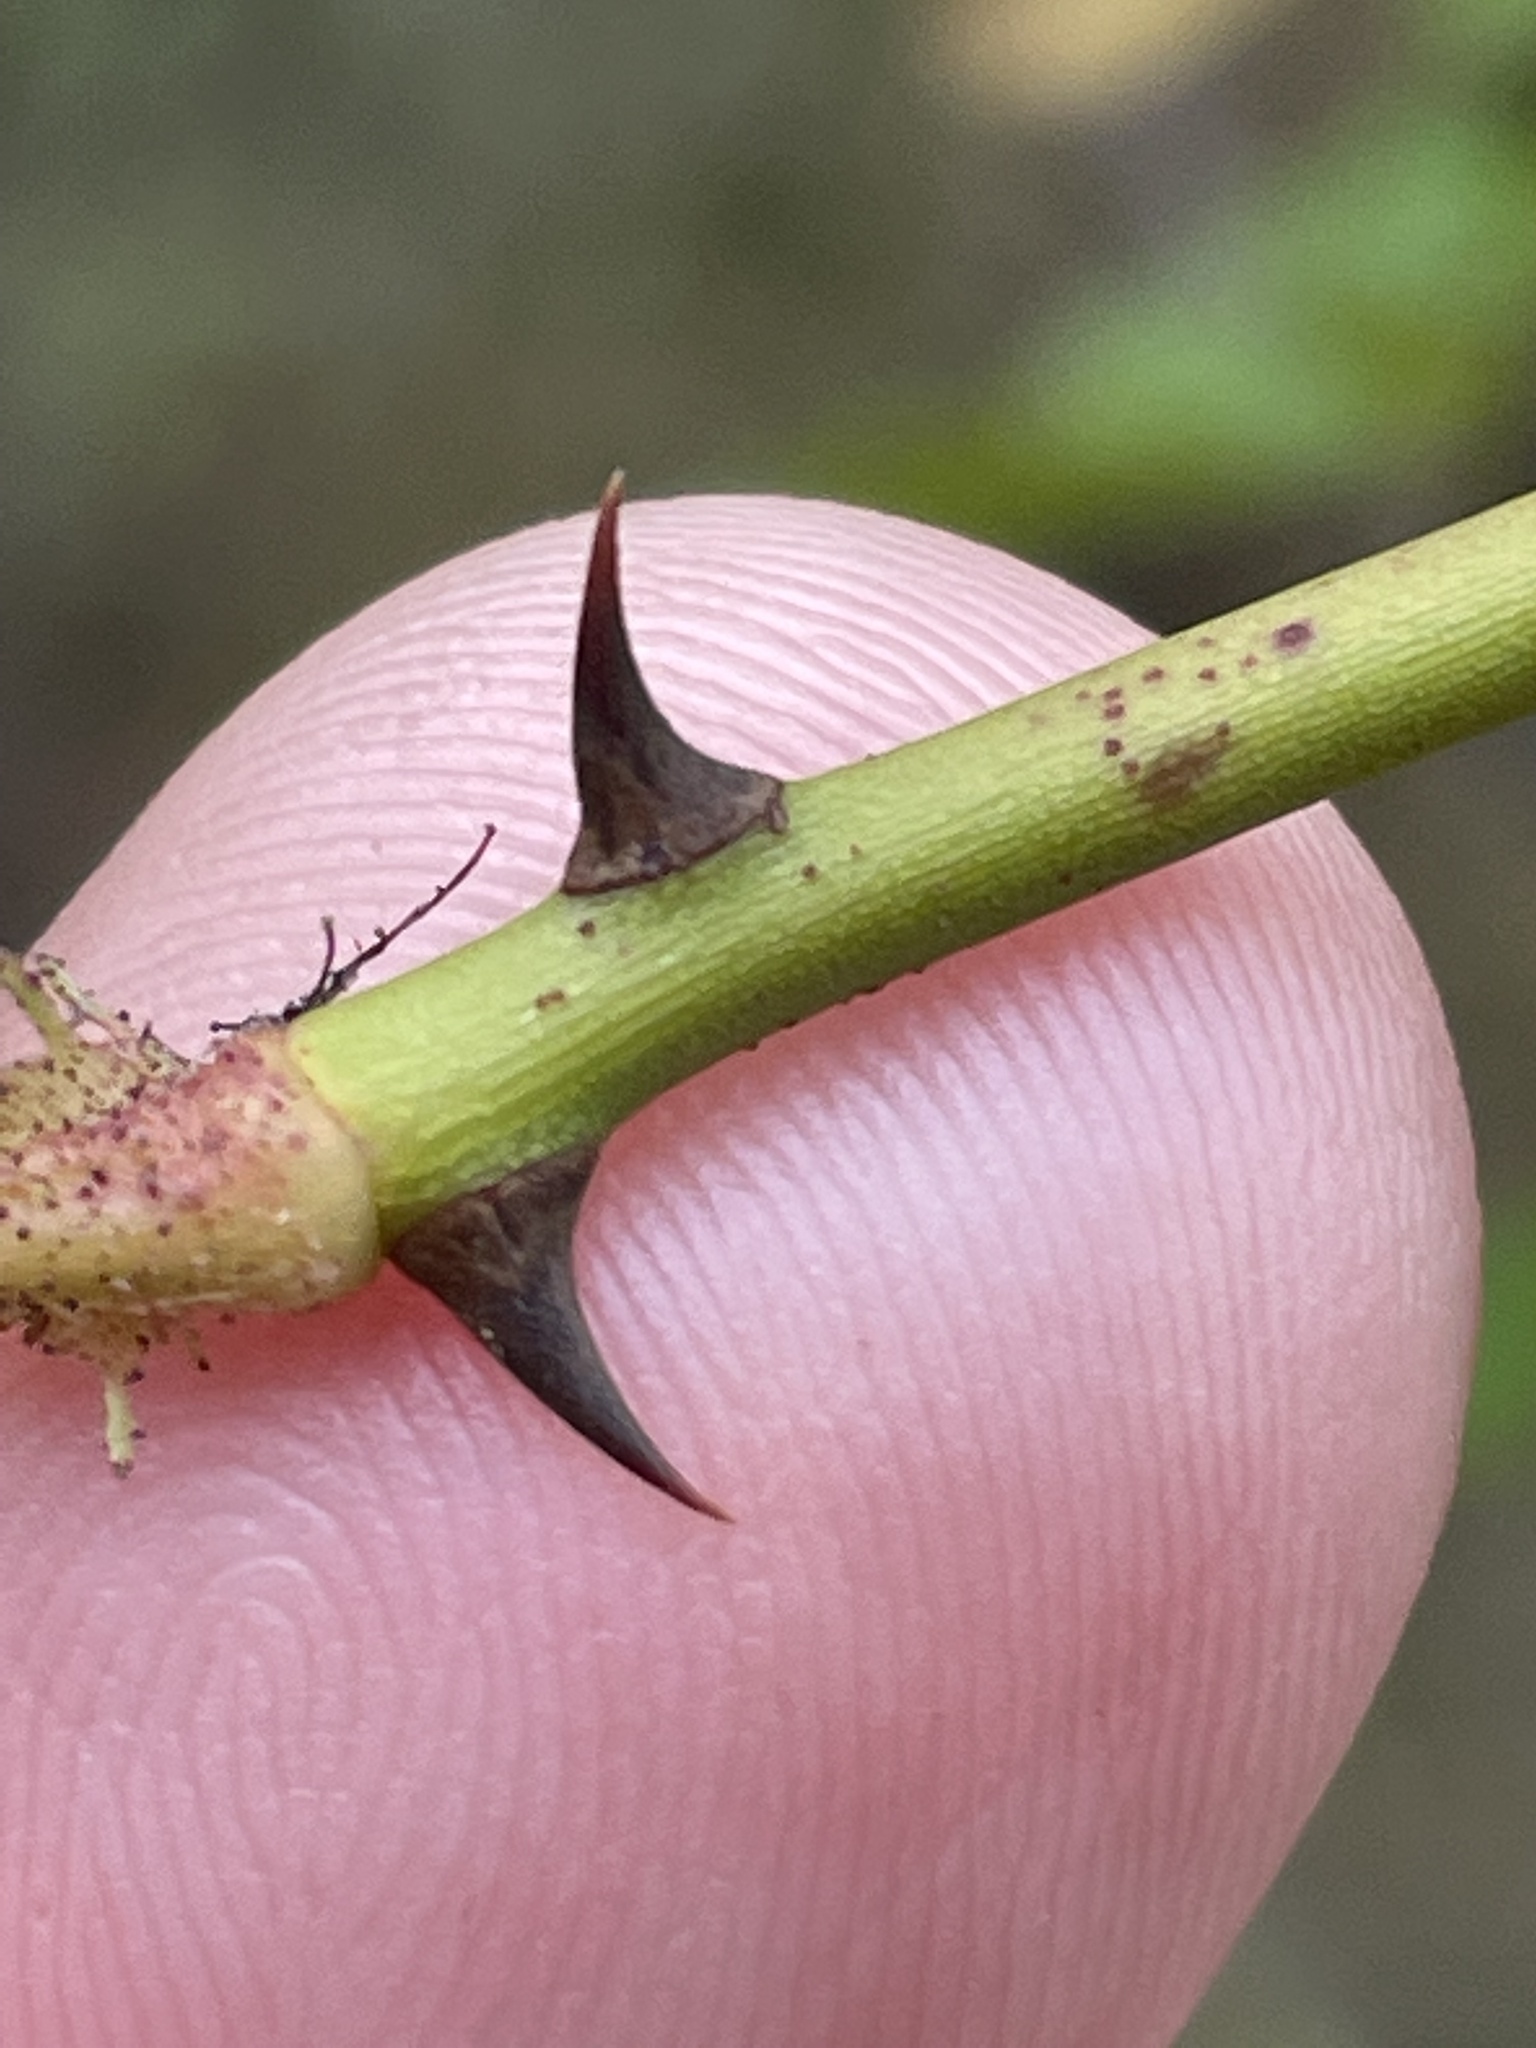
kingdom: Plantae
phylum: Tracheophyta
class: Magnoliopsida
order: Rosales
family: Rosaceae
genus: Rosa
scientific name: Rosa multiflora
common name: Multiflora rose
